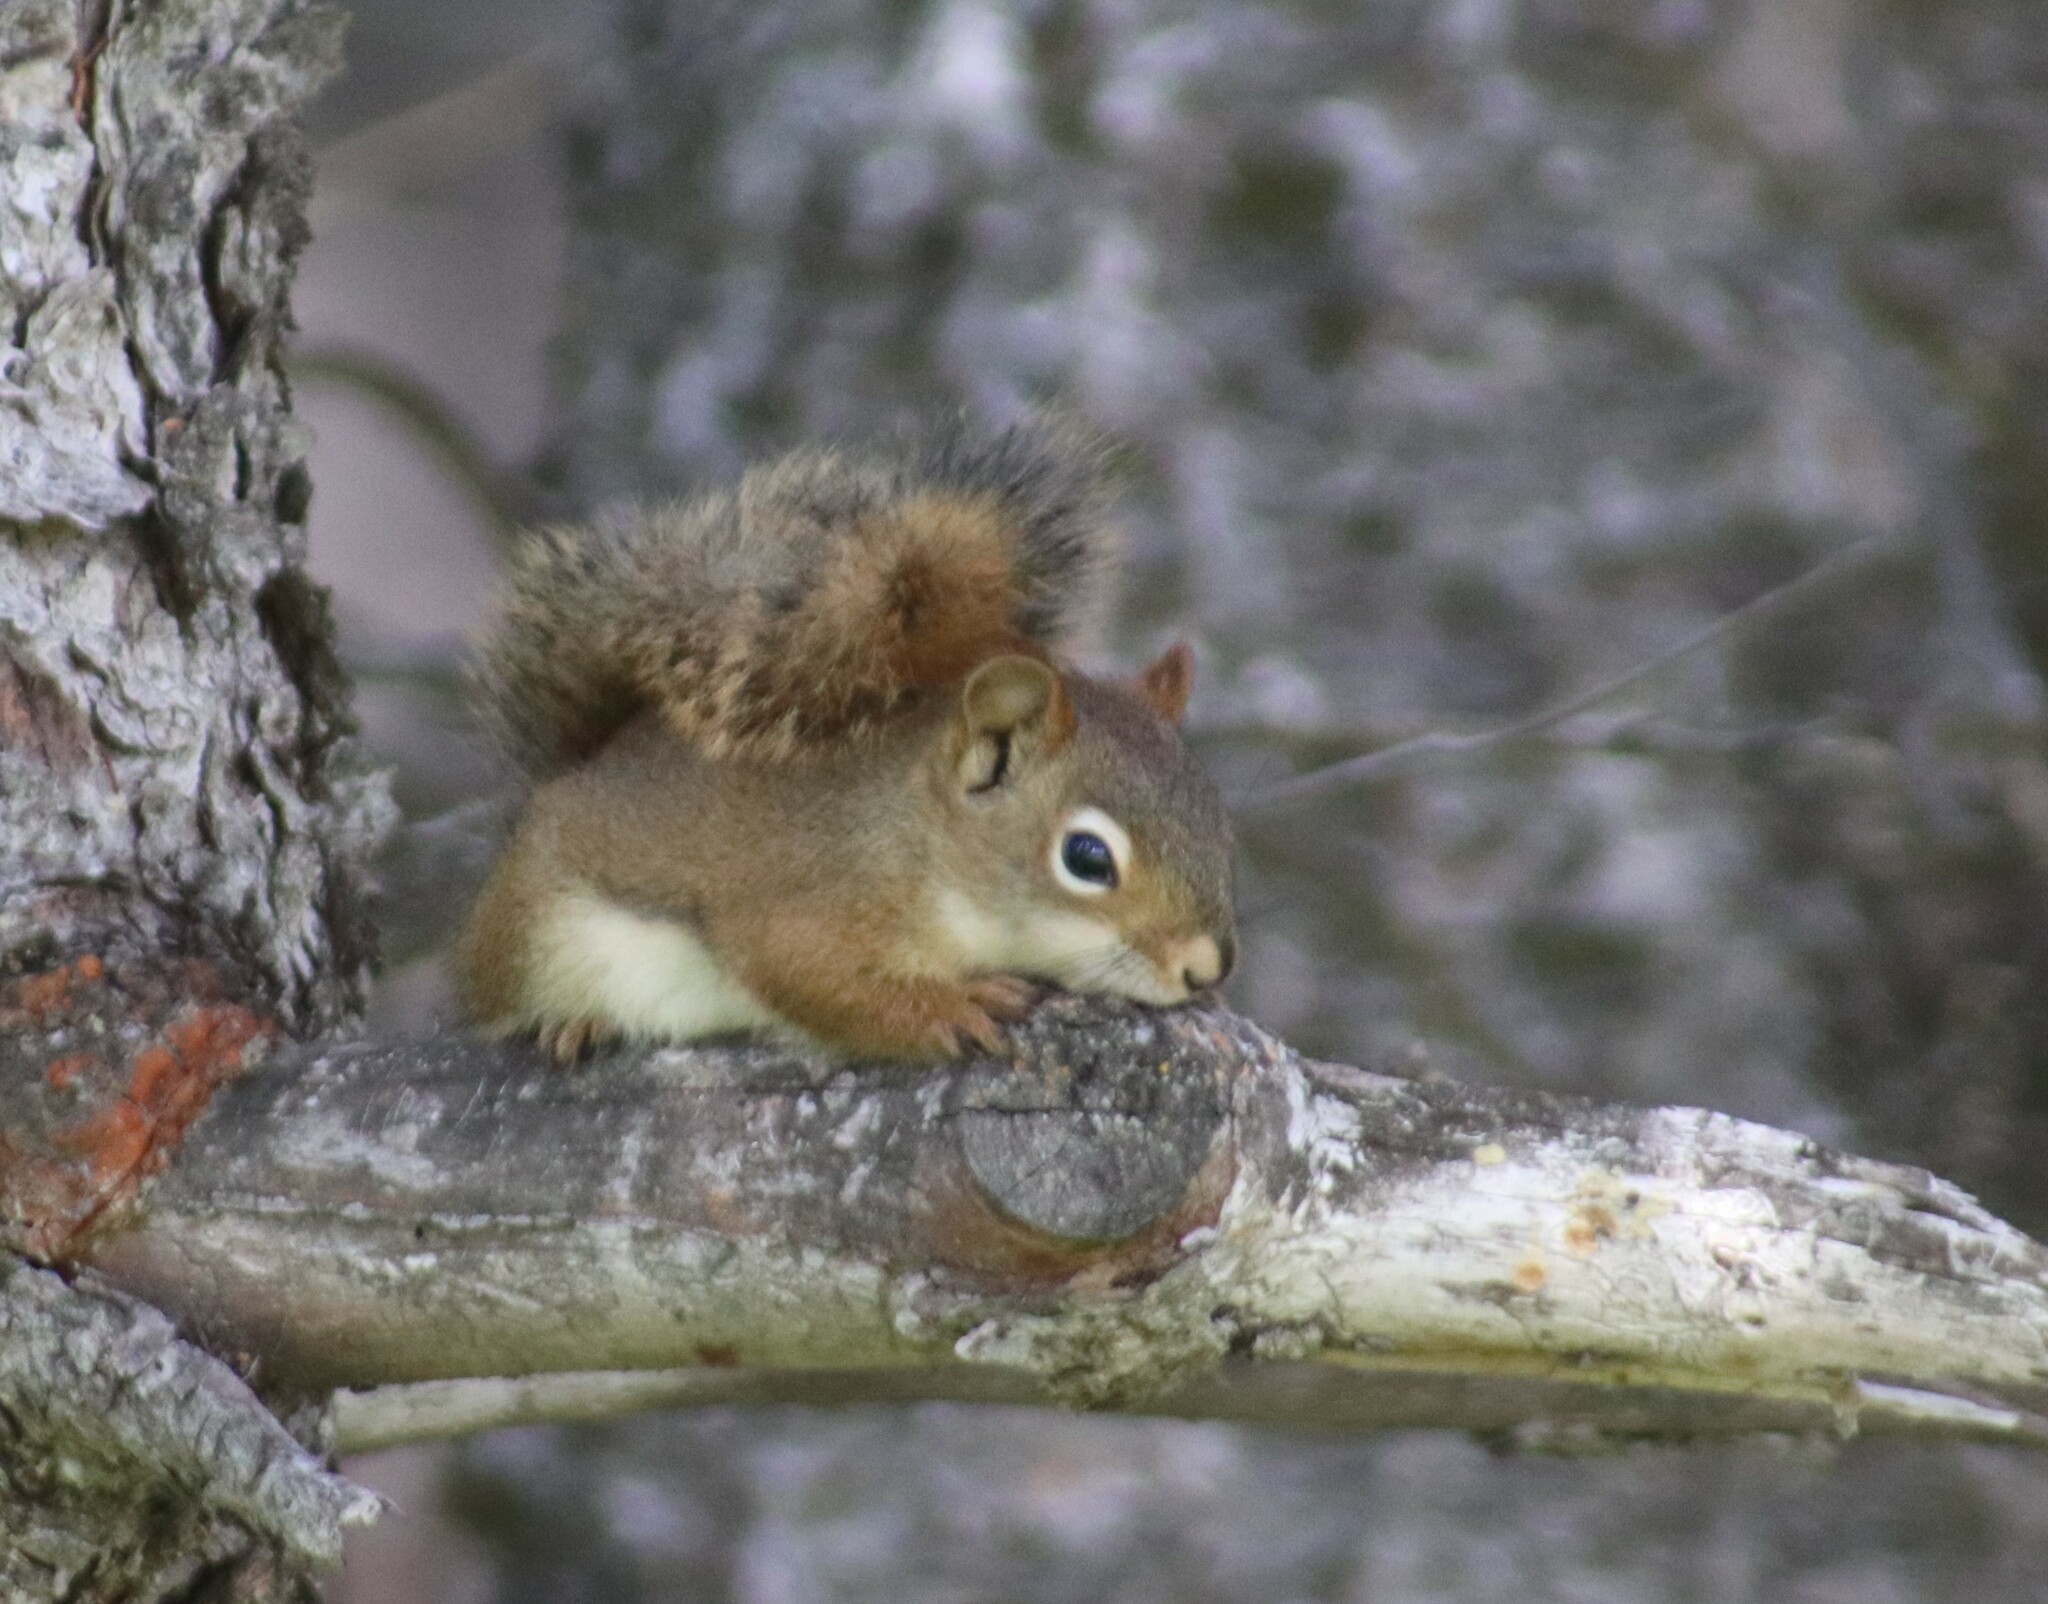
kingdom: Animalia
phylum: Chordata
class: Mammalia
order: Rodentia
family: Sciuridae
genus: Tamiasciurus
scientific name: Tamiasciurus hudsonicus
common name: Red squirrel
